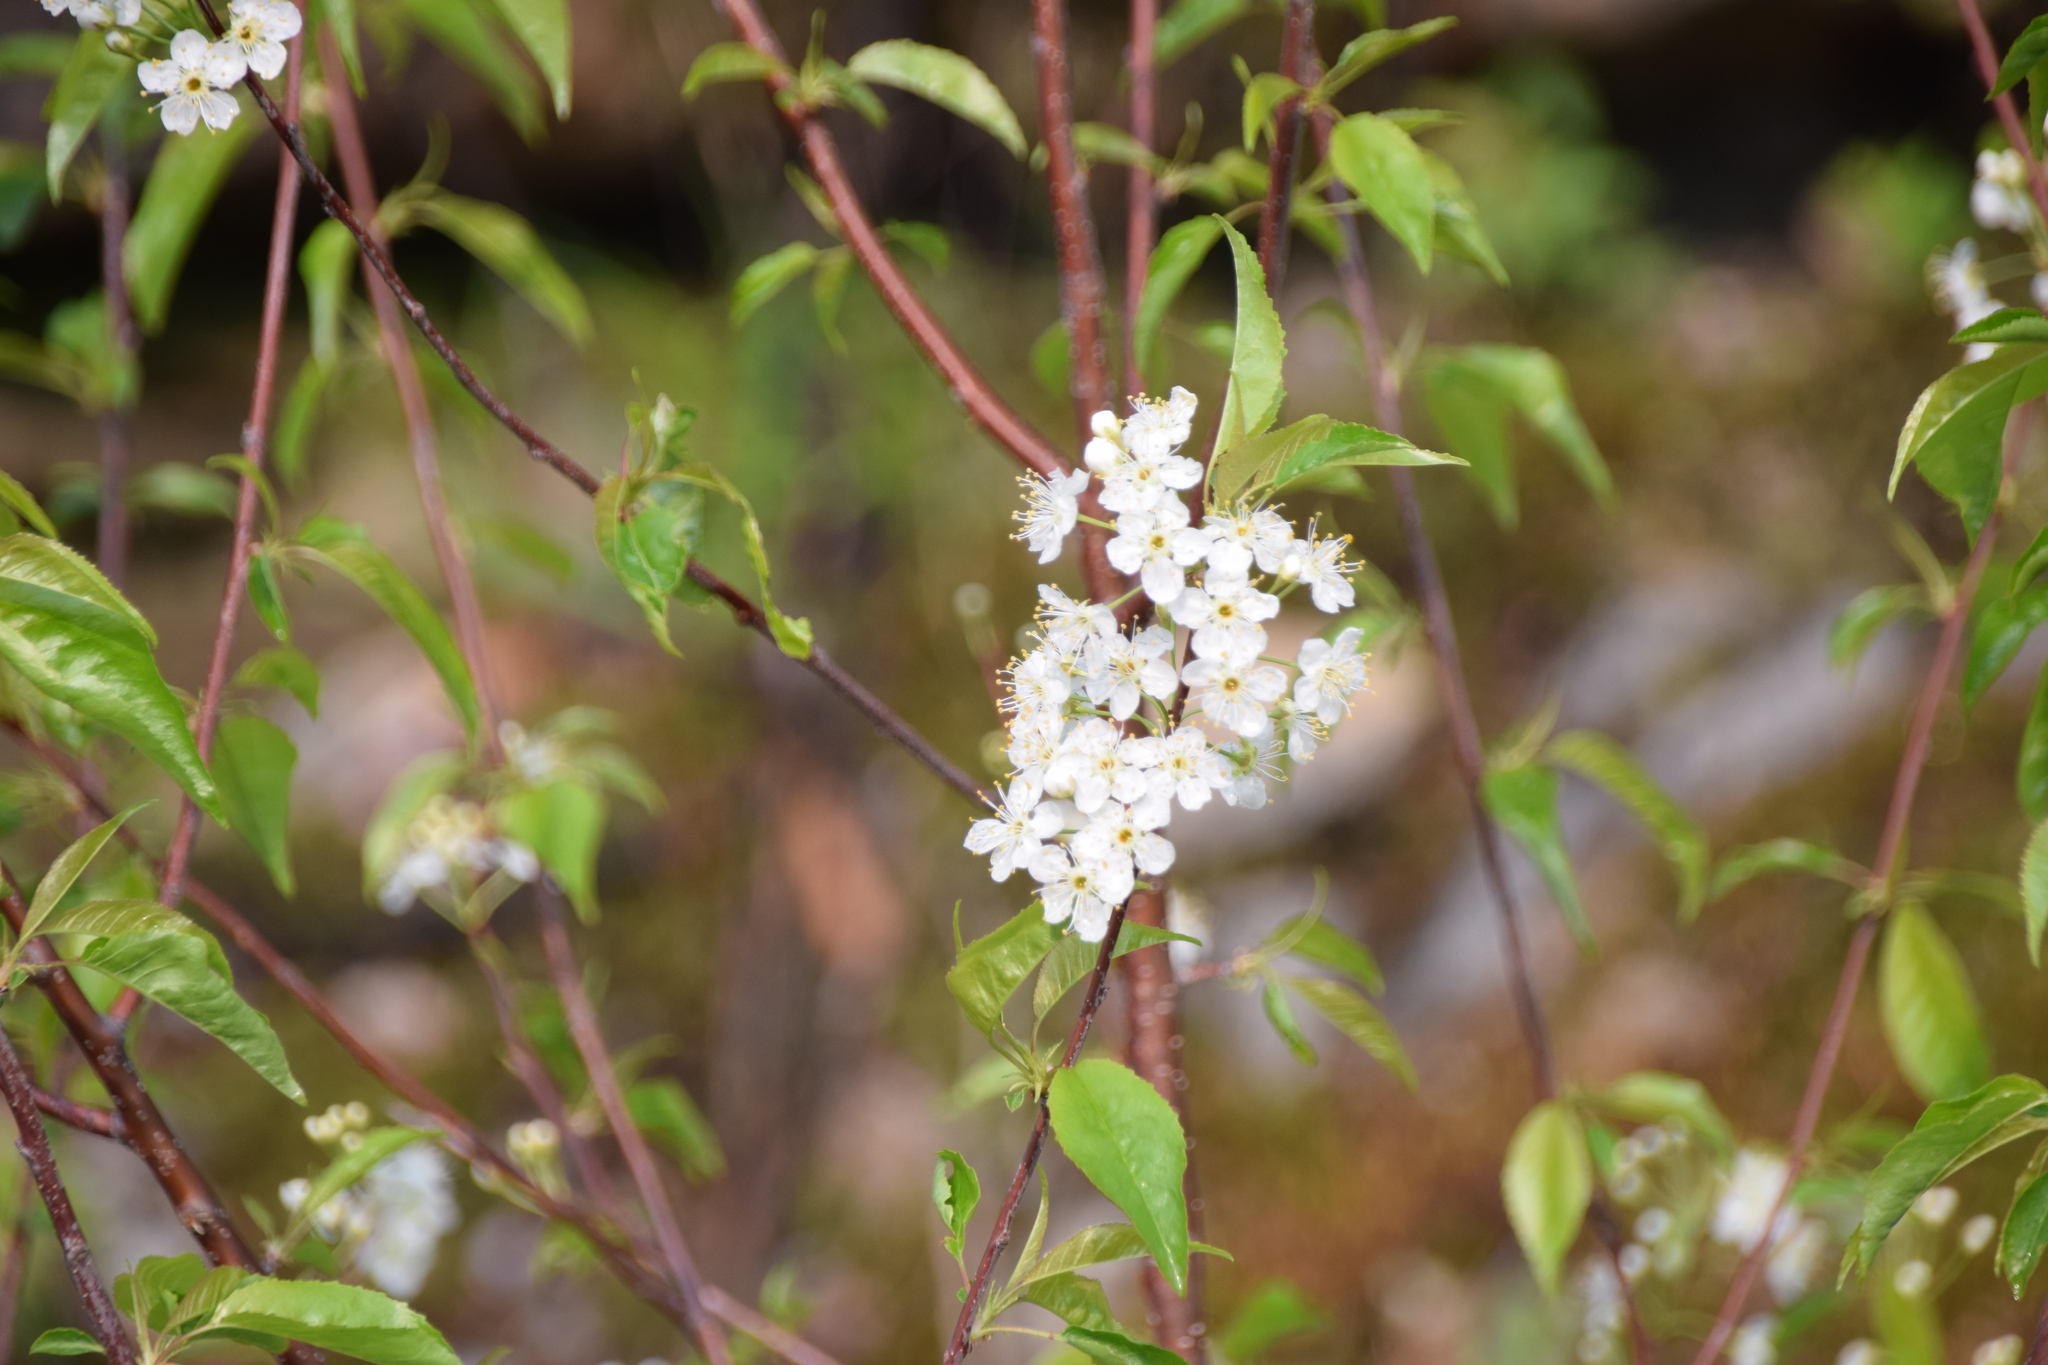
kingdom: Plantae
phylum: Tracheophyta
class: Magnoliopsida
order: Rosales
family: Rosaceae
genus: Prunus
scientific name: Prunus pensylvanica
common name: Pin cherry
